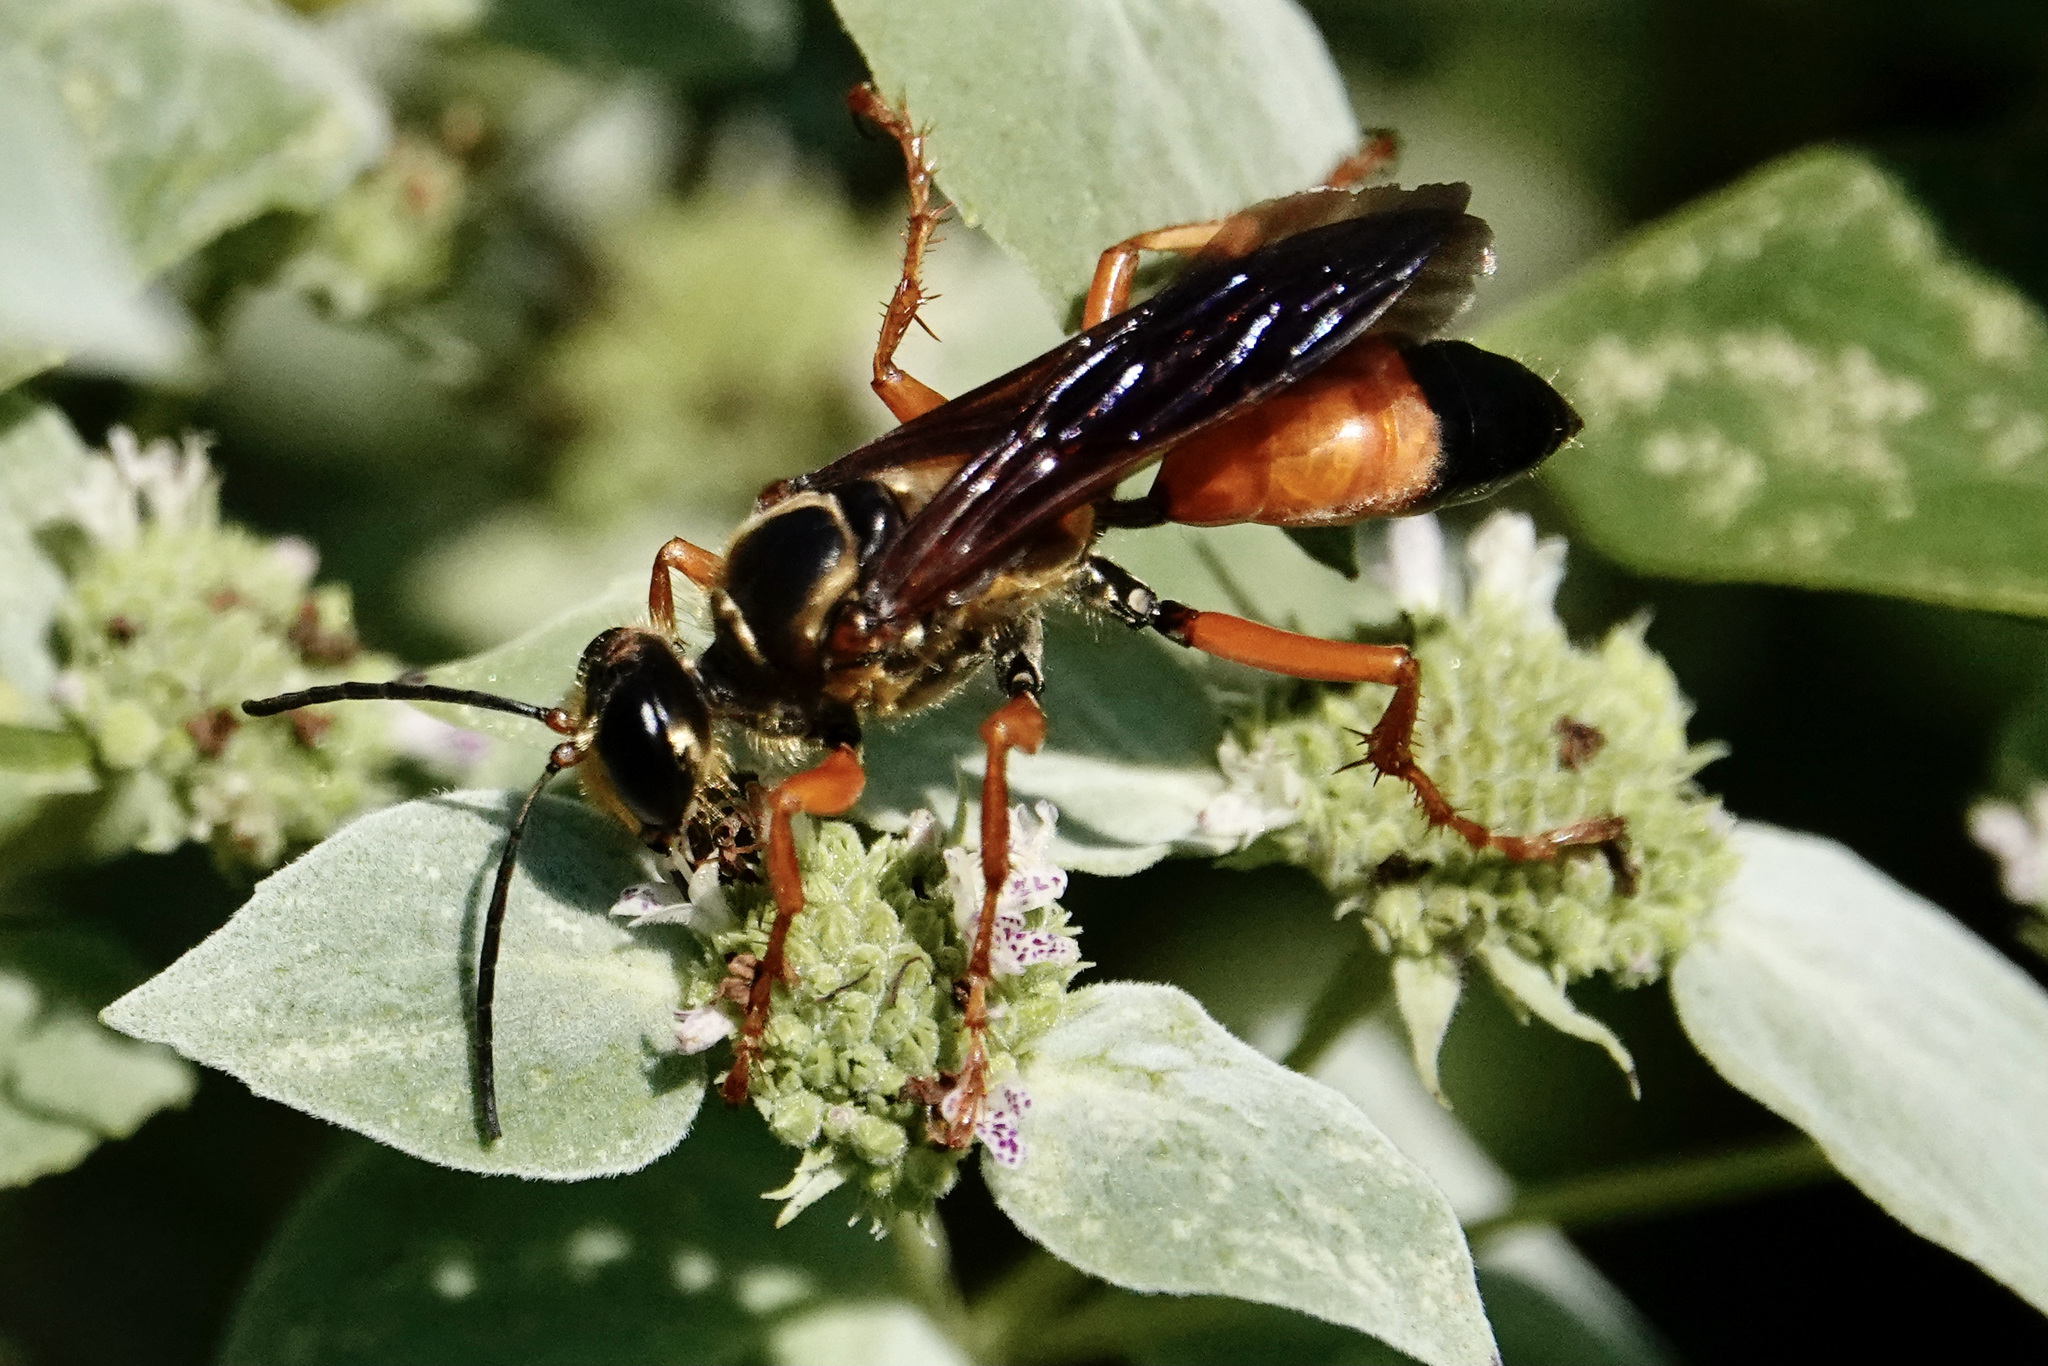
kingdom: Animalia
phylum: Arthropoda
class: Insecta
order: Hymenoptera
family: Sphecidae
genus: Sphex
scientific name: Sphex ichneumoneus
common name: Great golden digger wasp
